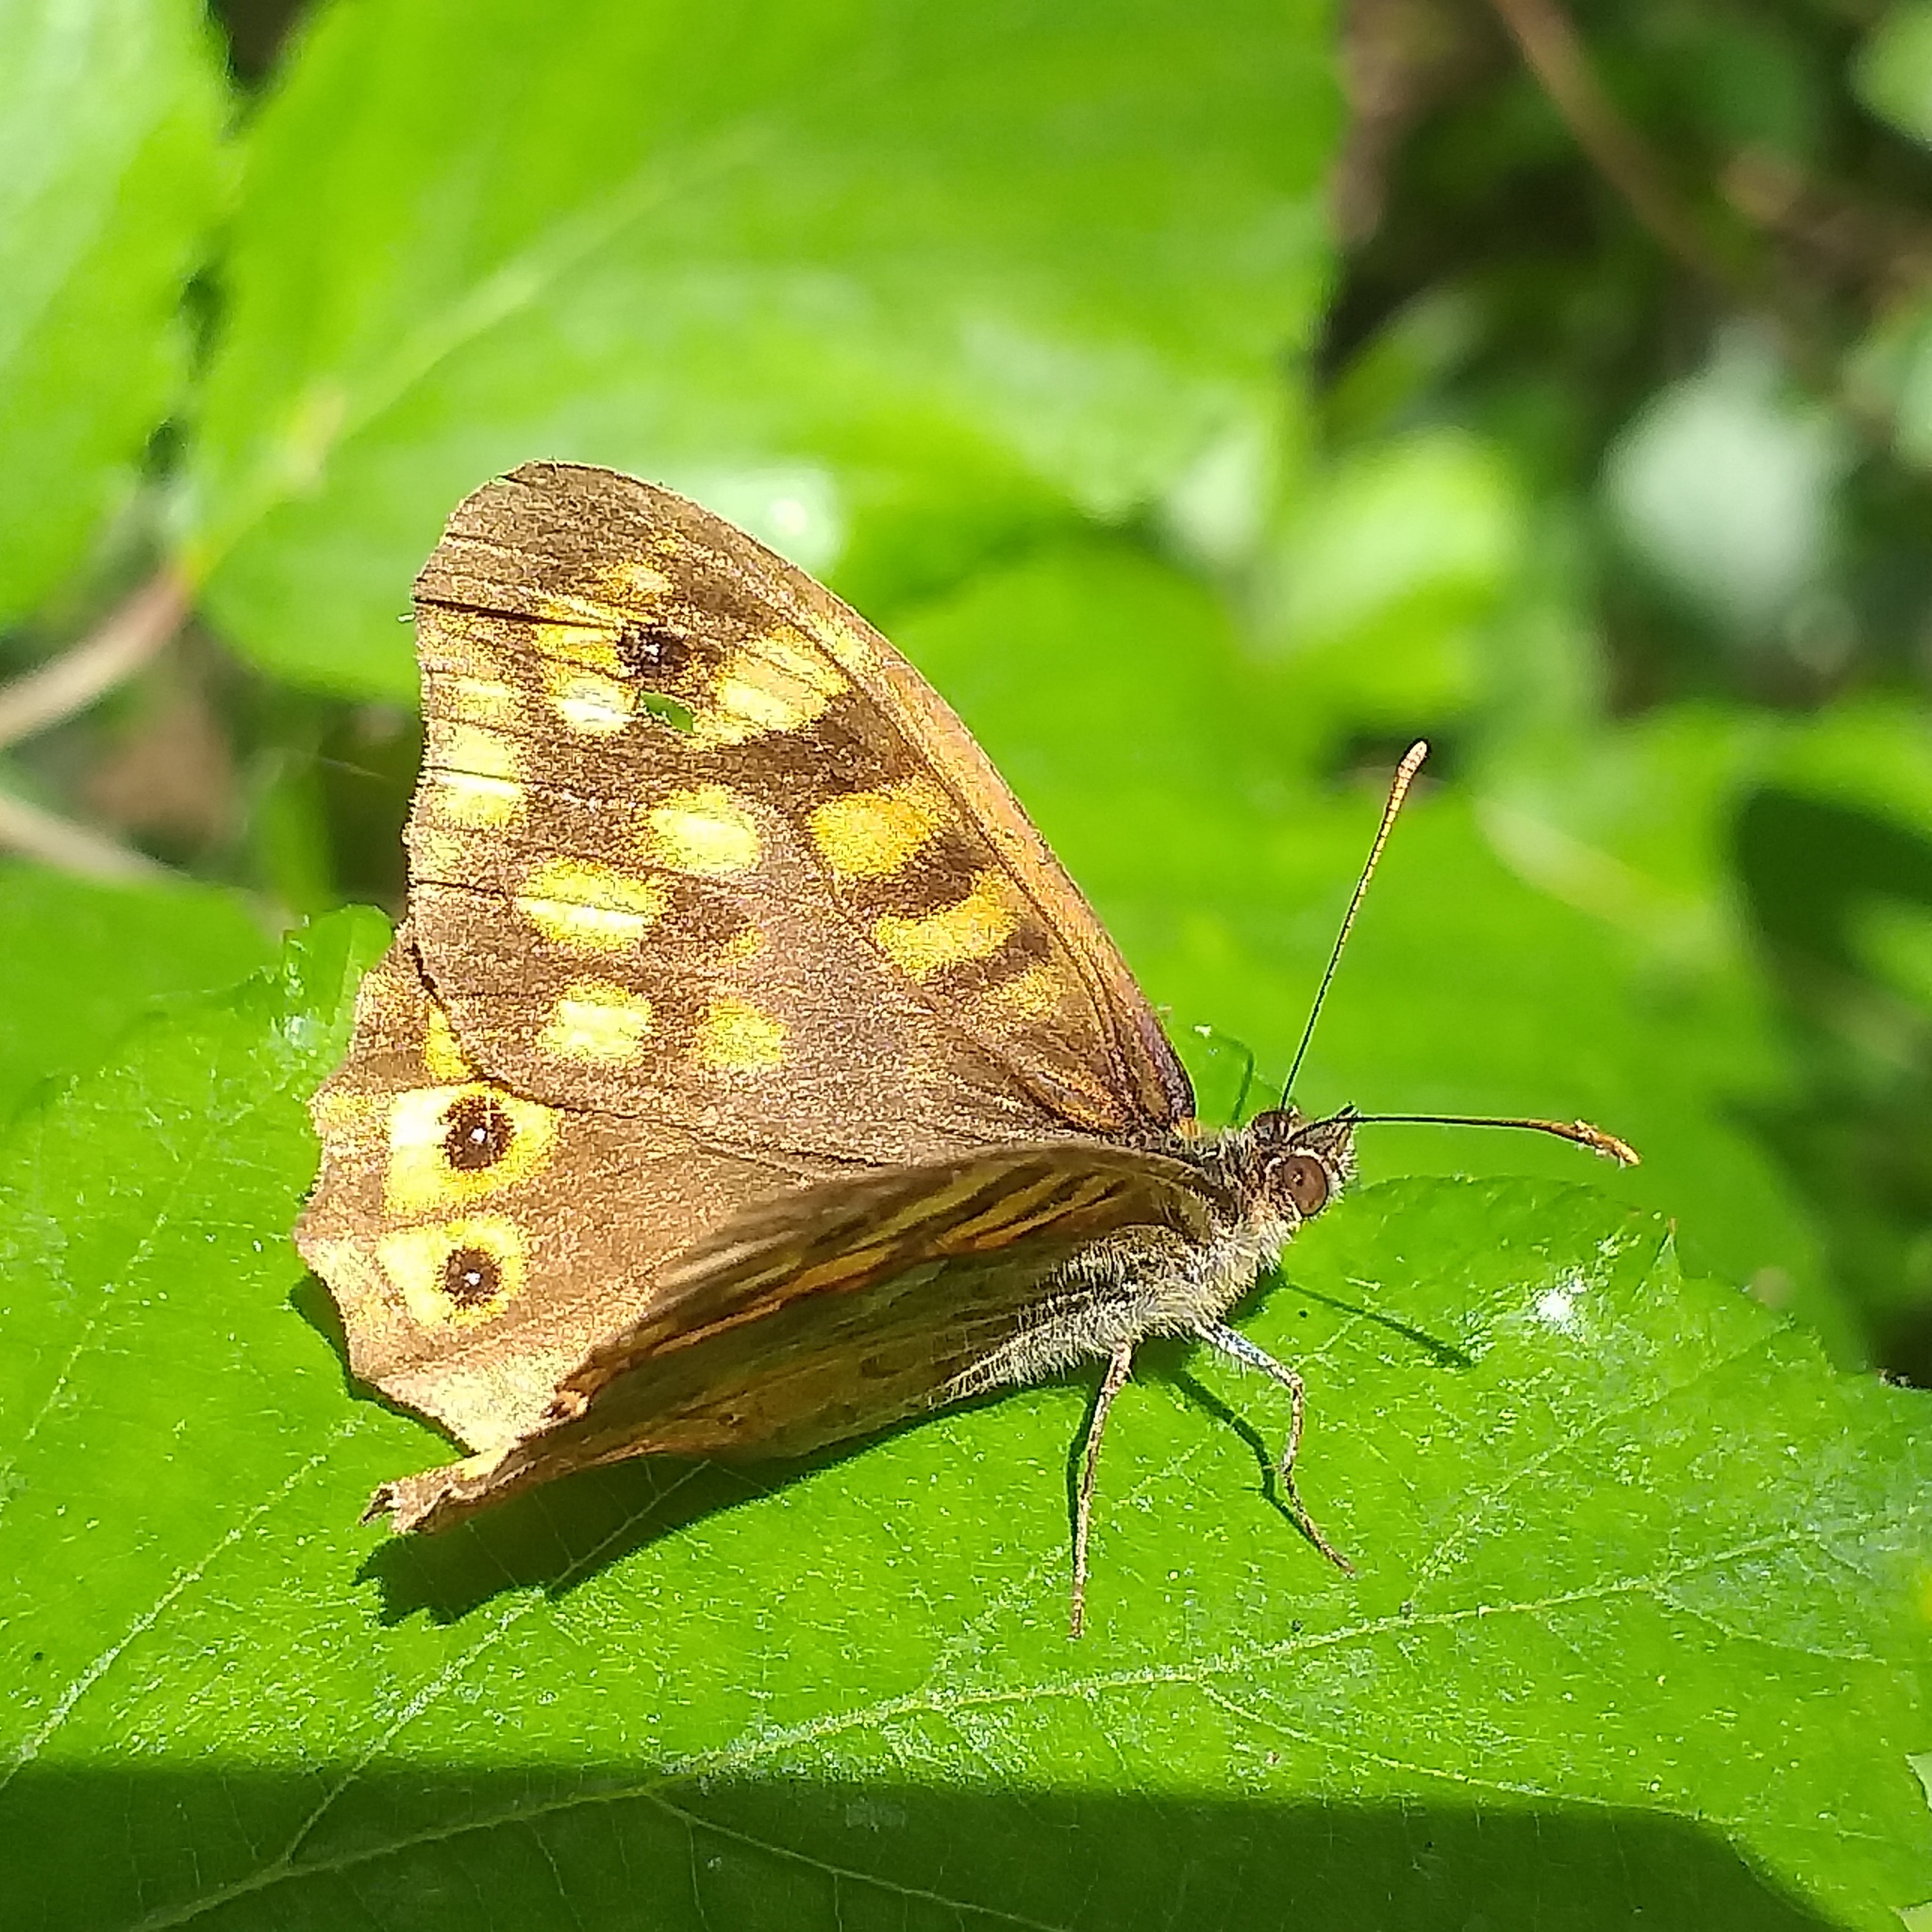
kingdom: Animalia
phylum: Arthropoda
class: Insecta
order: Lepidoptera
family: Nymphalidae
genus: Pararge
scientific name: Pararge aegeria
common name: Speckled wood
